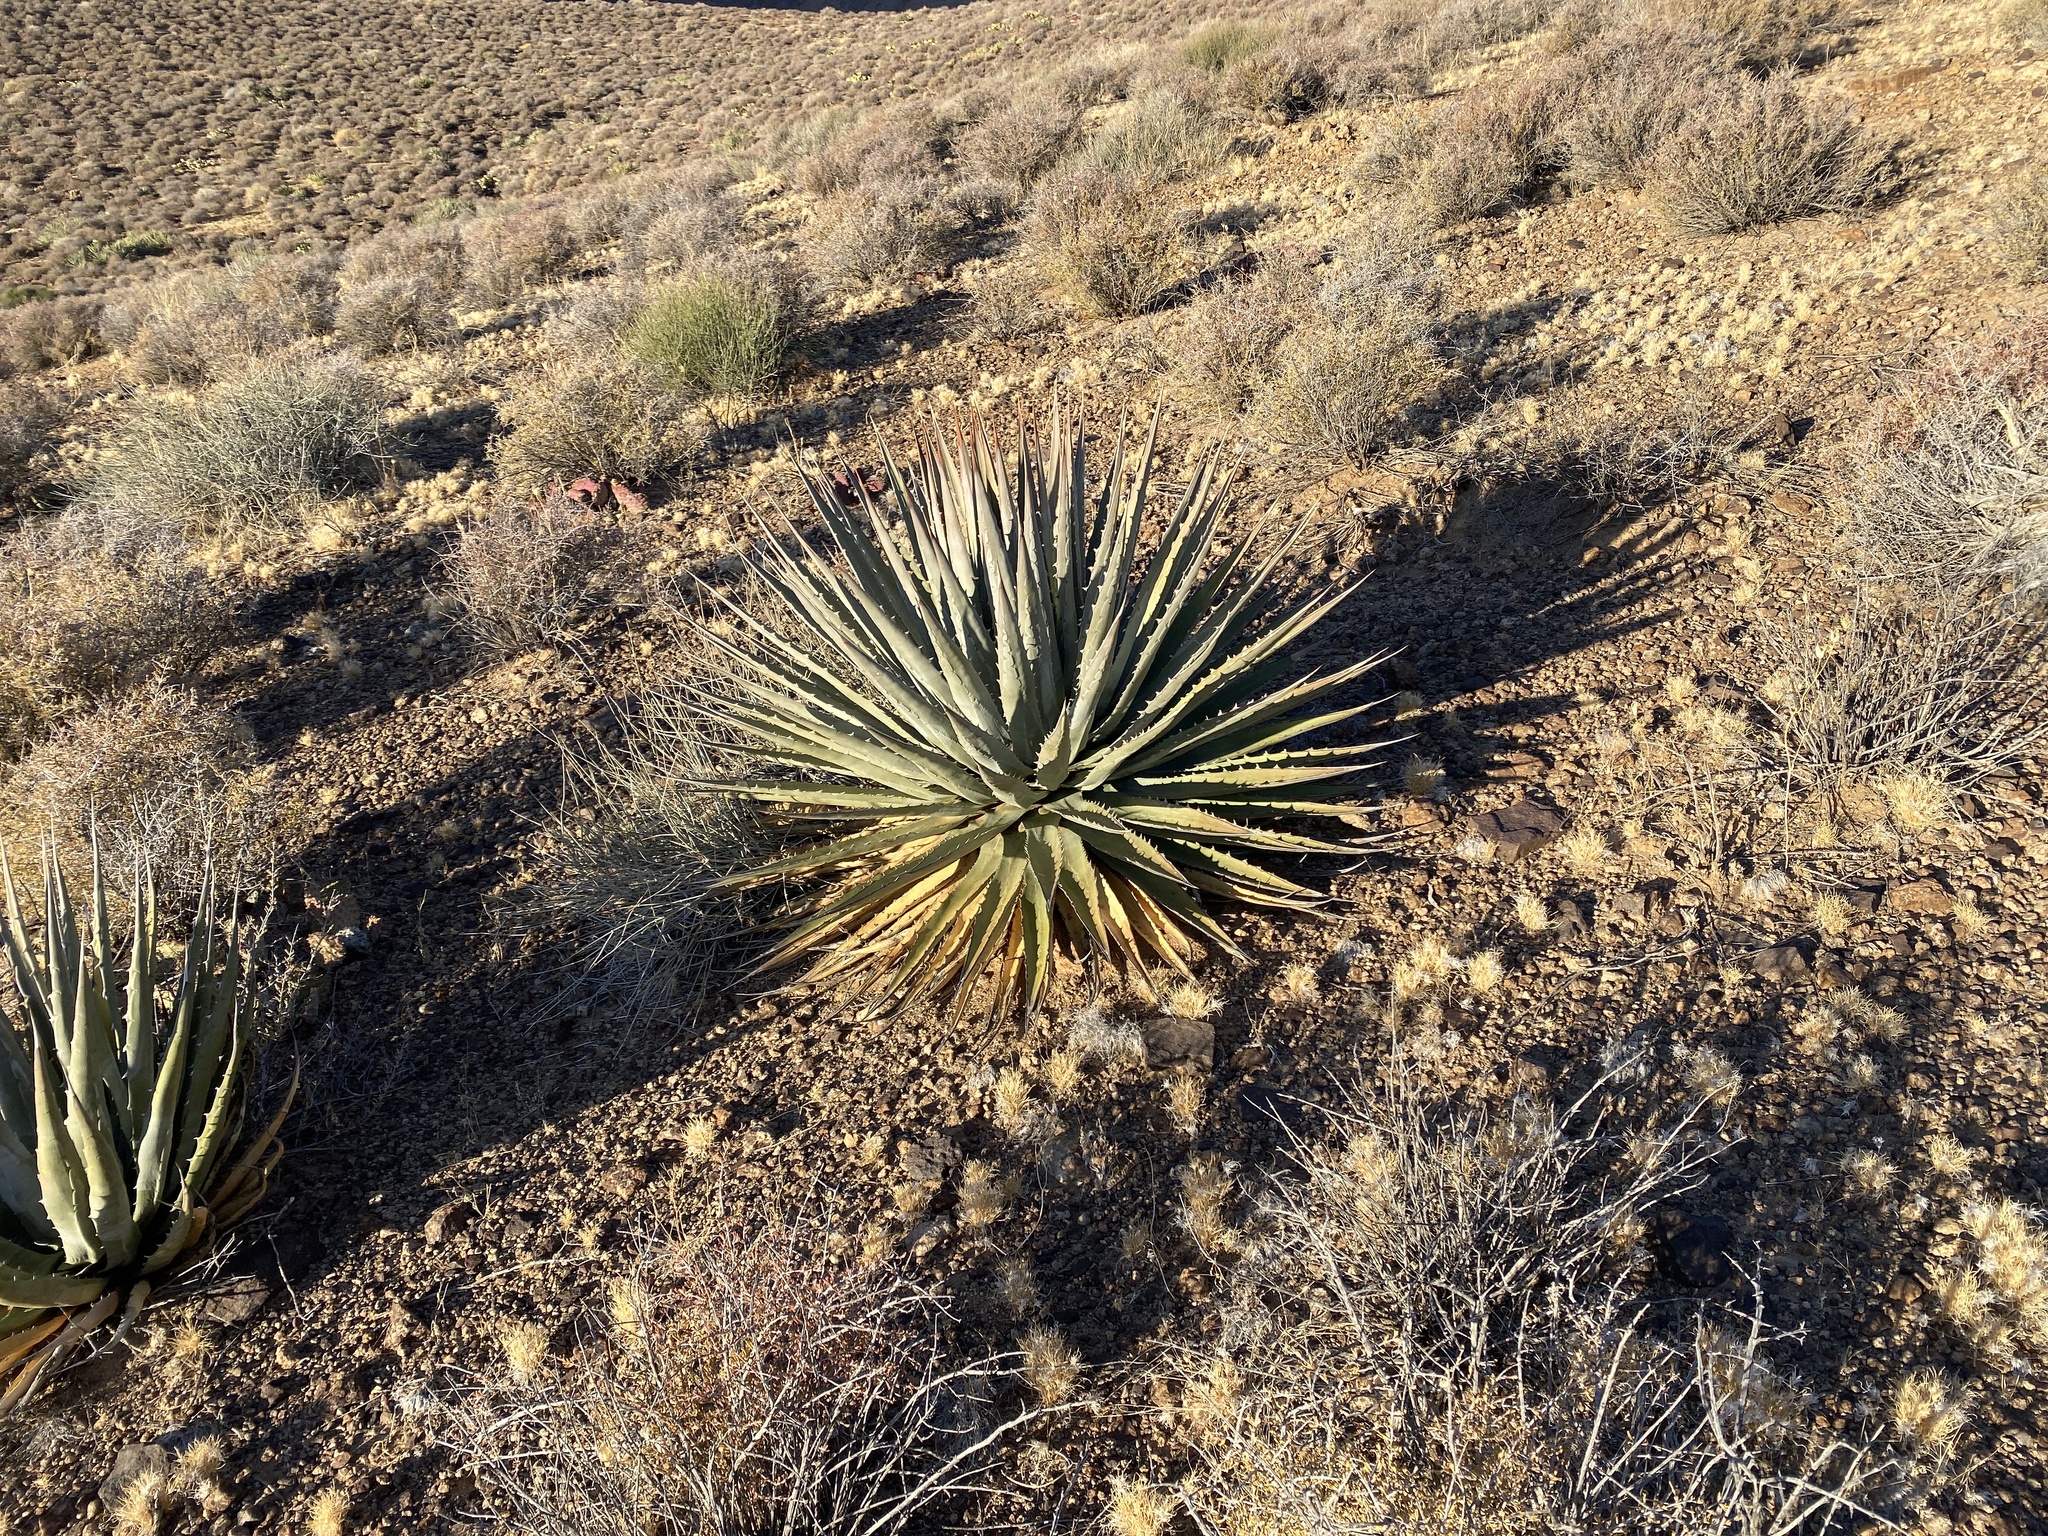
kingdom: Plantae
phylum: Tracheophyta
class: Liliopsida
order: Asparagales
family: Asparagaceae
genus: Agave
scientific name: Agave utahensis
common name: Utah agave
